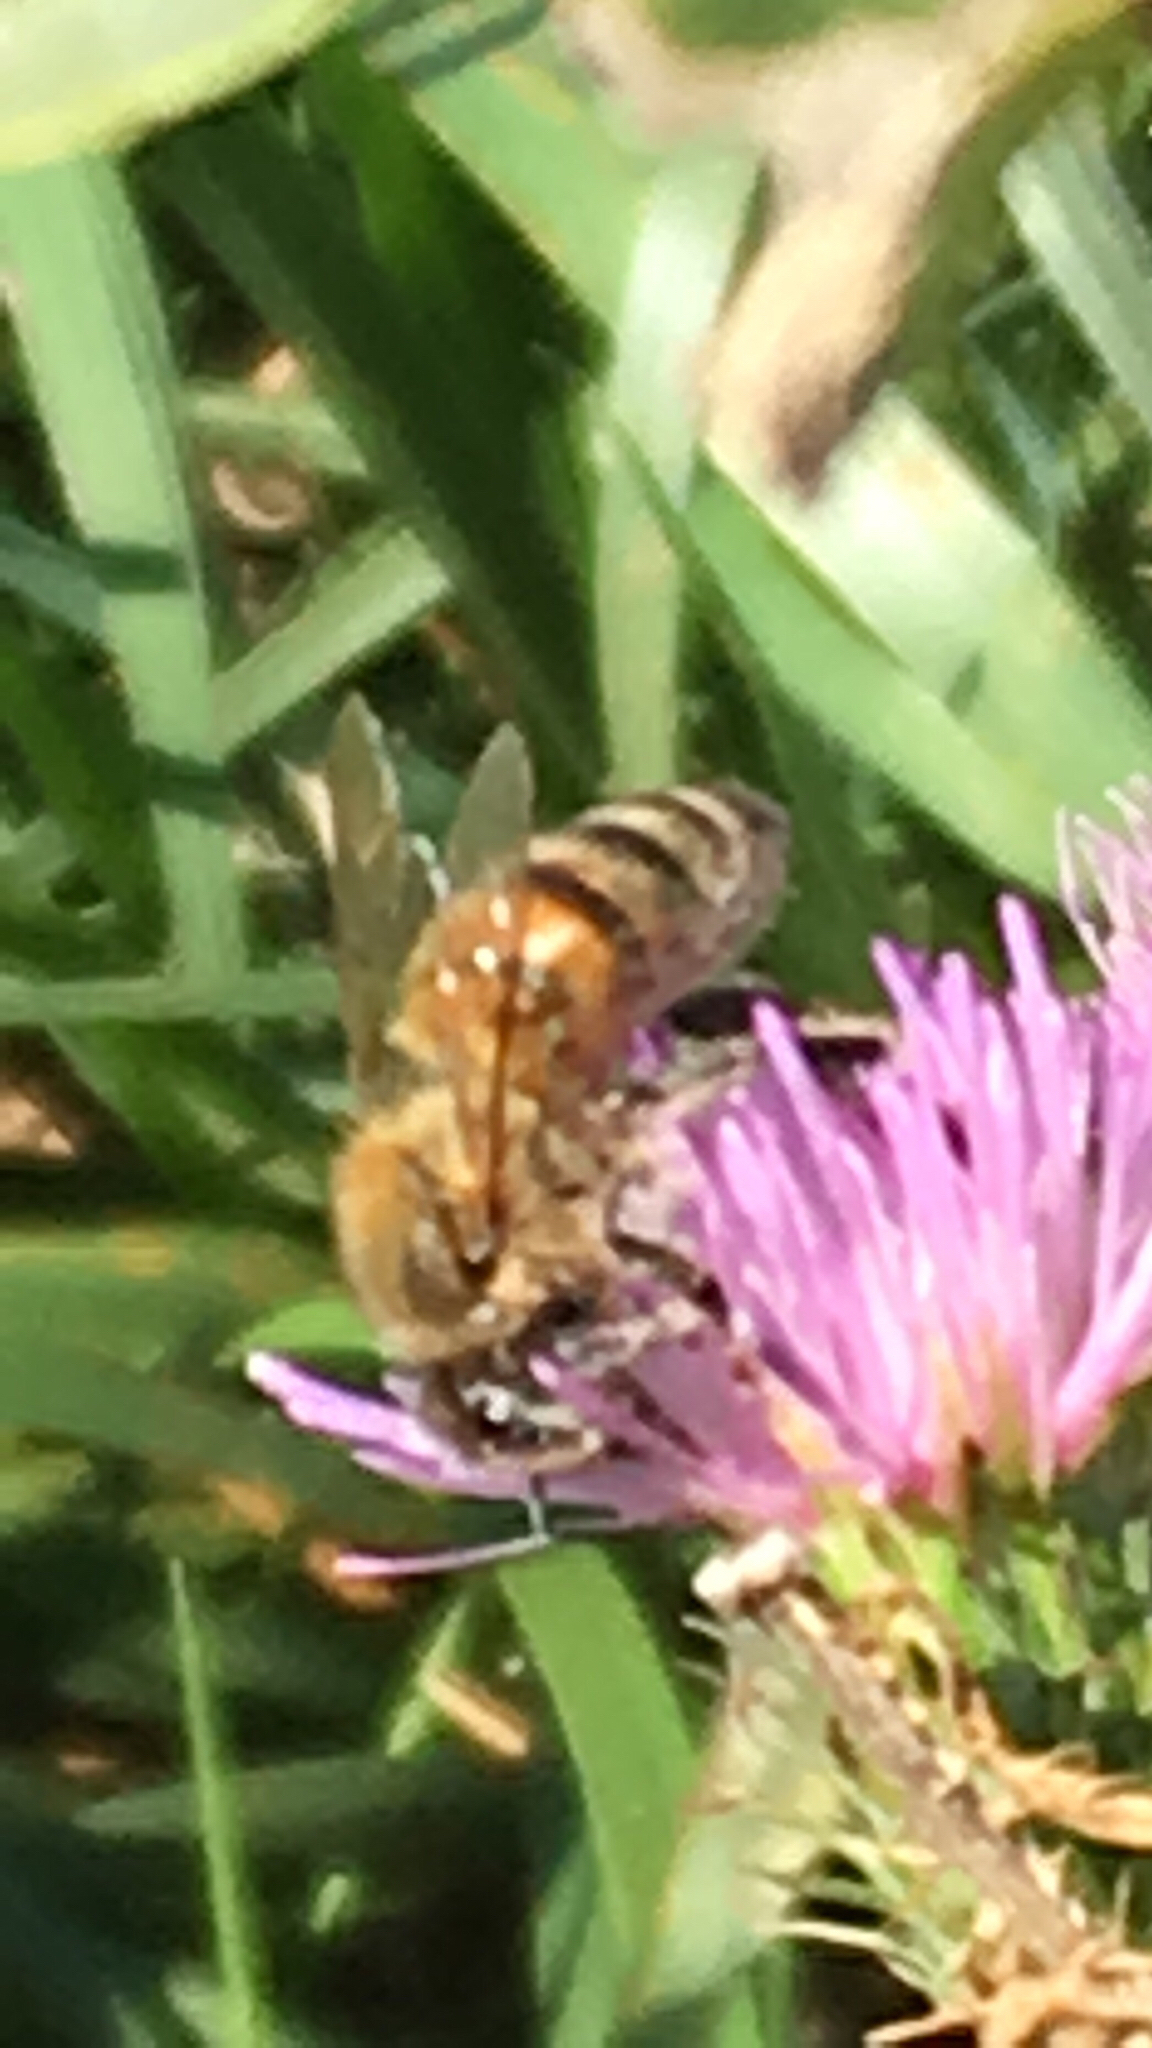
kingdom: Animalia
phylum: Arthropoda
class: Insecta
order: Hymenoptera
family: Apidae
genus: Apis
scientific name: Apis mellifera
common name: Honey bee
